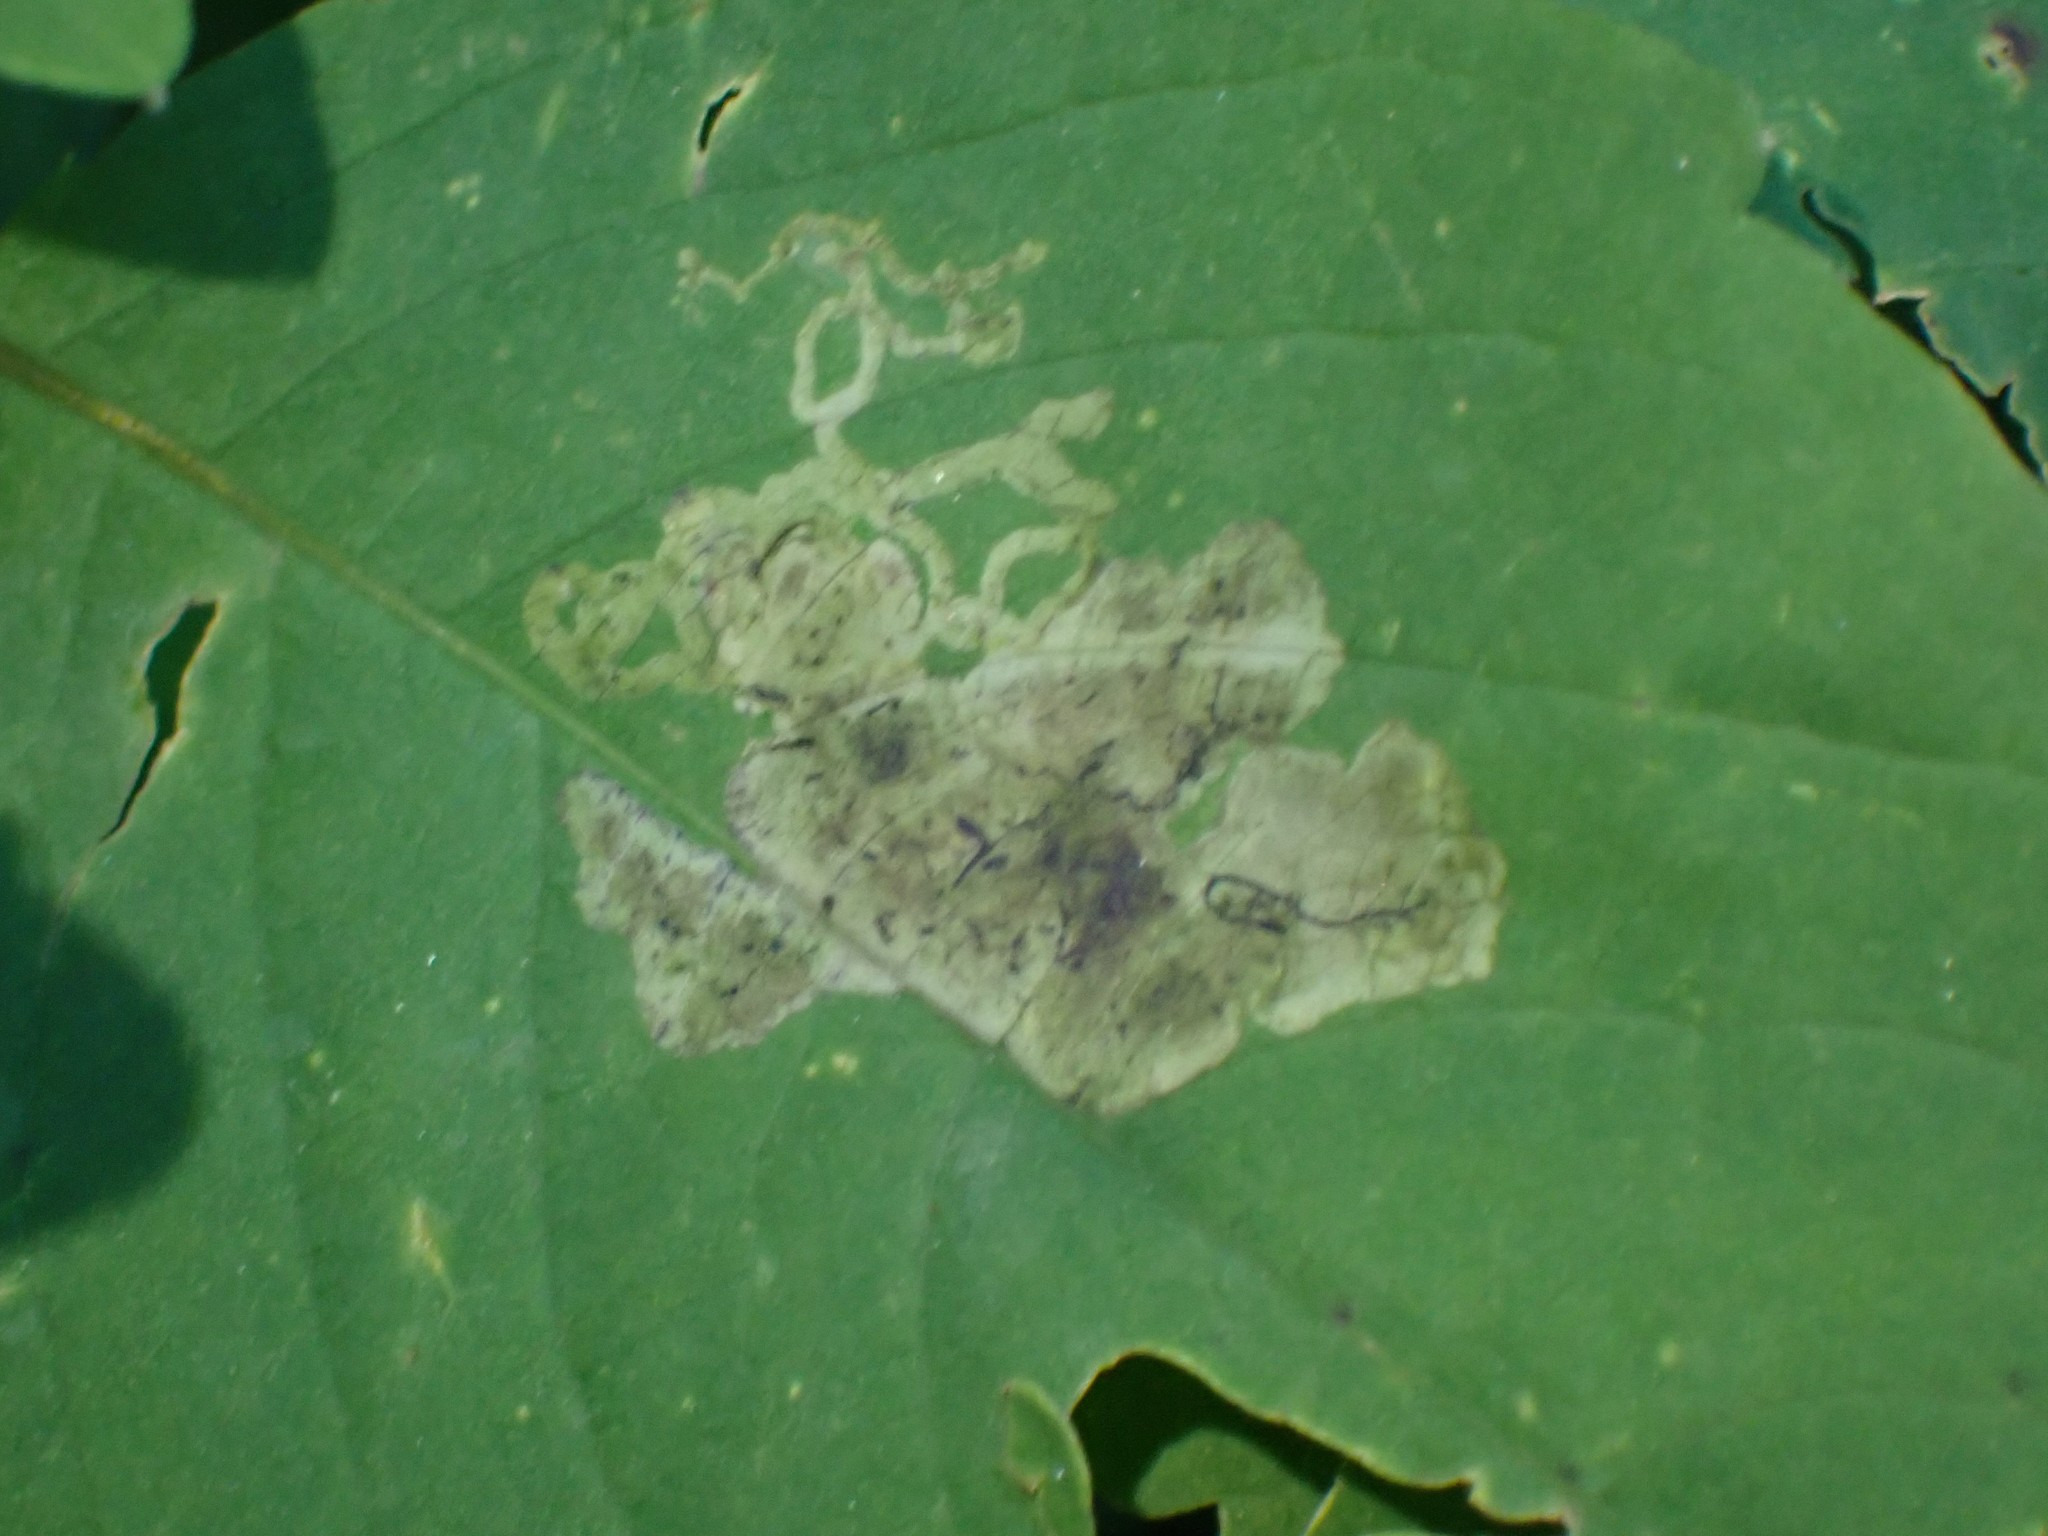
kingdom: Animalia
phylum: Arthropoda
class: Insecta
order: Diptera
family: Agromyzidae
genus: Phytoliriomyza
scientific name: Phytoliriomyza melampyga
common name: Jewelweed leaf-miner fly
